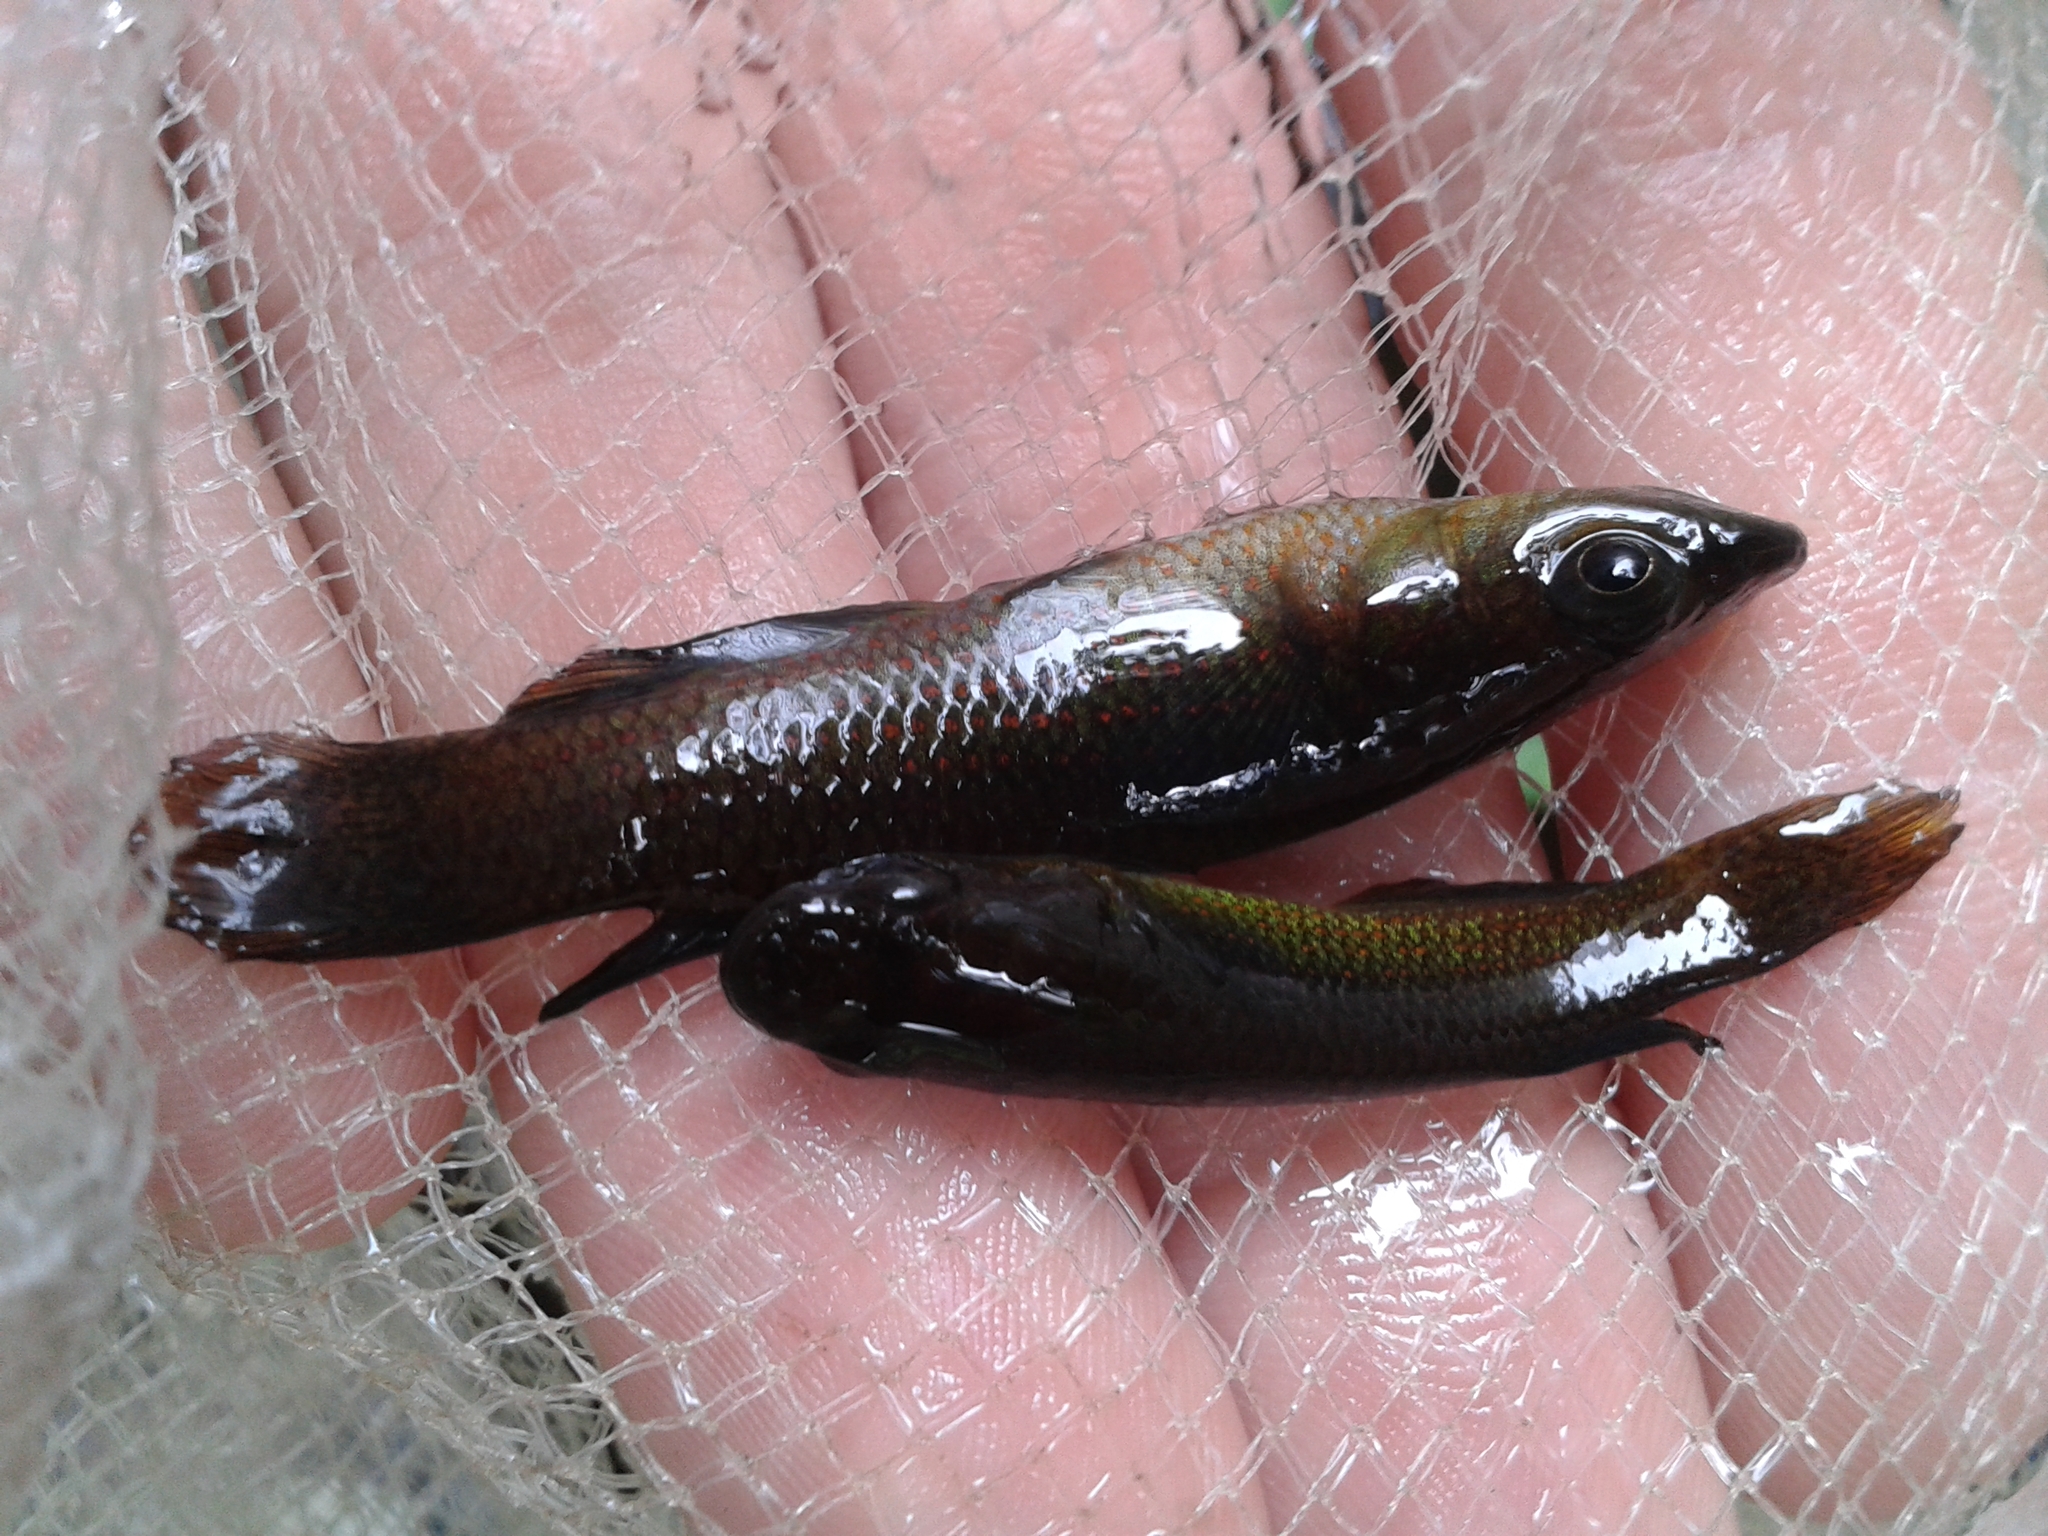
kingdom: Animalia
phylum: Chordata
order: Cyprinodontiformes
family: Aplocheilidae
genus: Pachypanchax
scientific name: Pachypanchax playfairii
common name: Golden panchax
